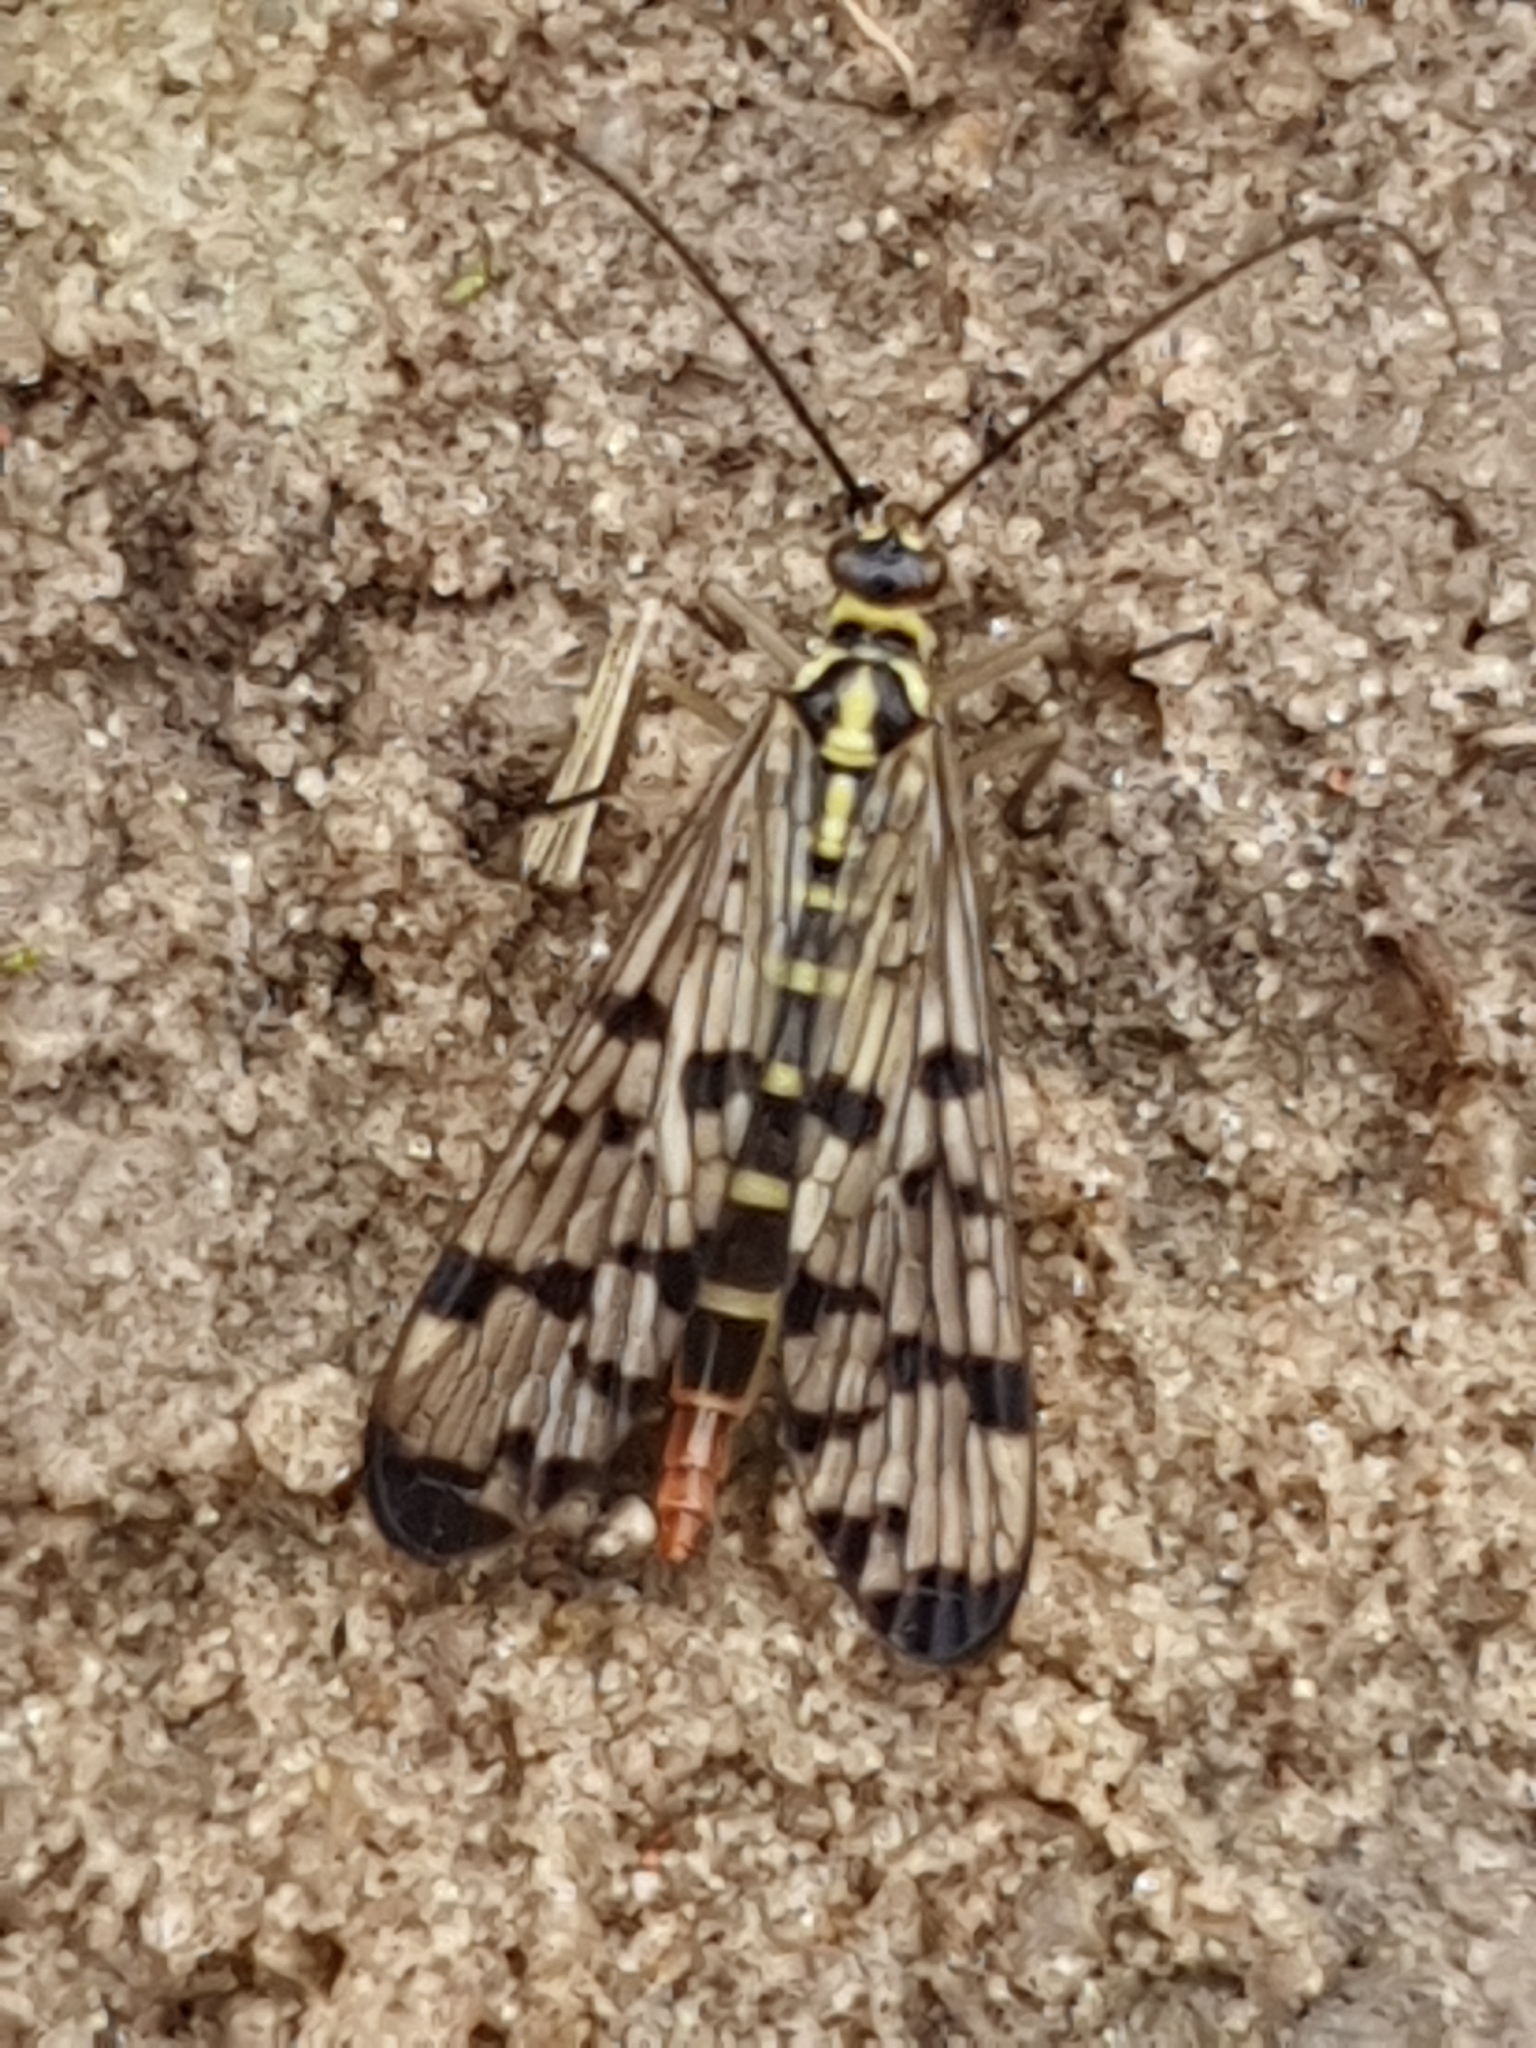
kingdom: Animalia
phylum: Arthropoda
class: Insecta
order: Mecoptera
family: Panorpidae
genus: Panorpa
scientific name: Panorpa communis
